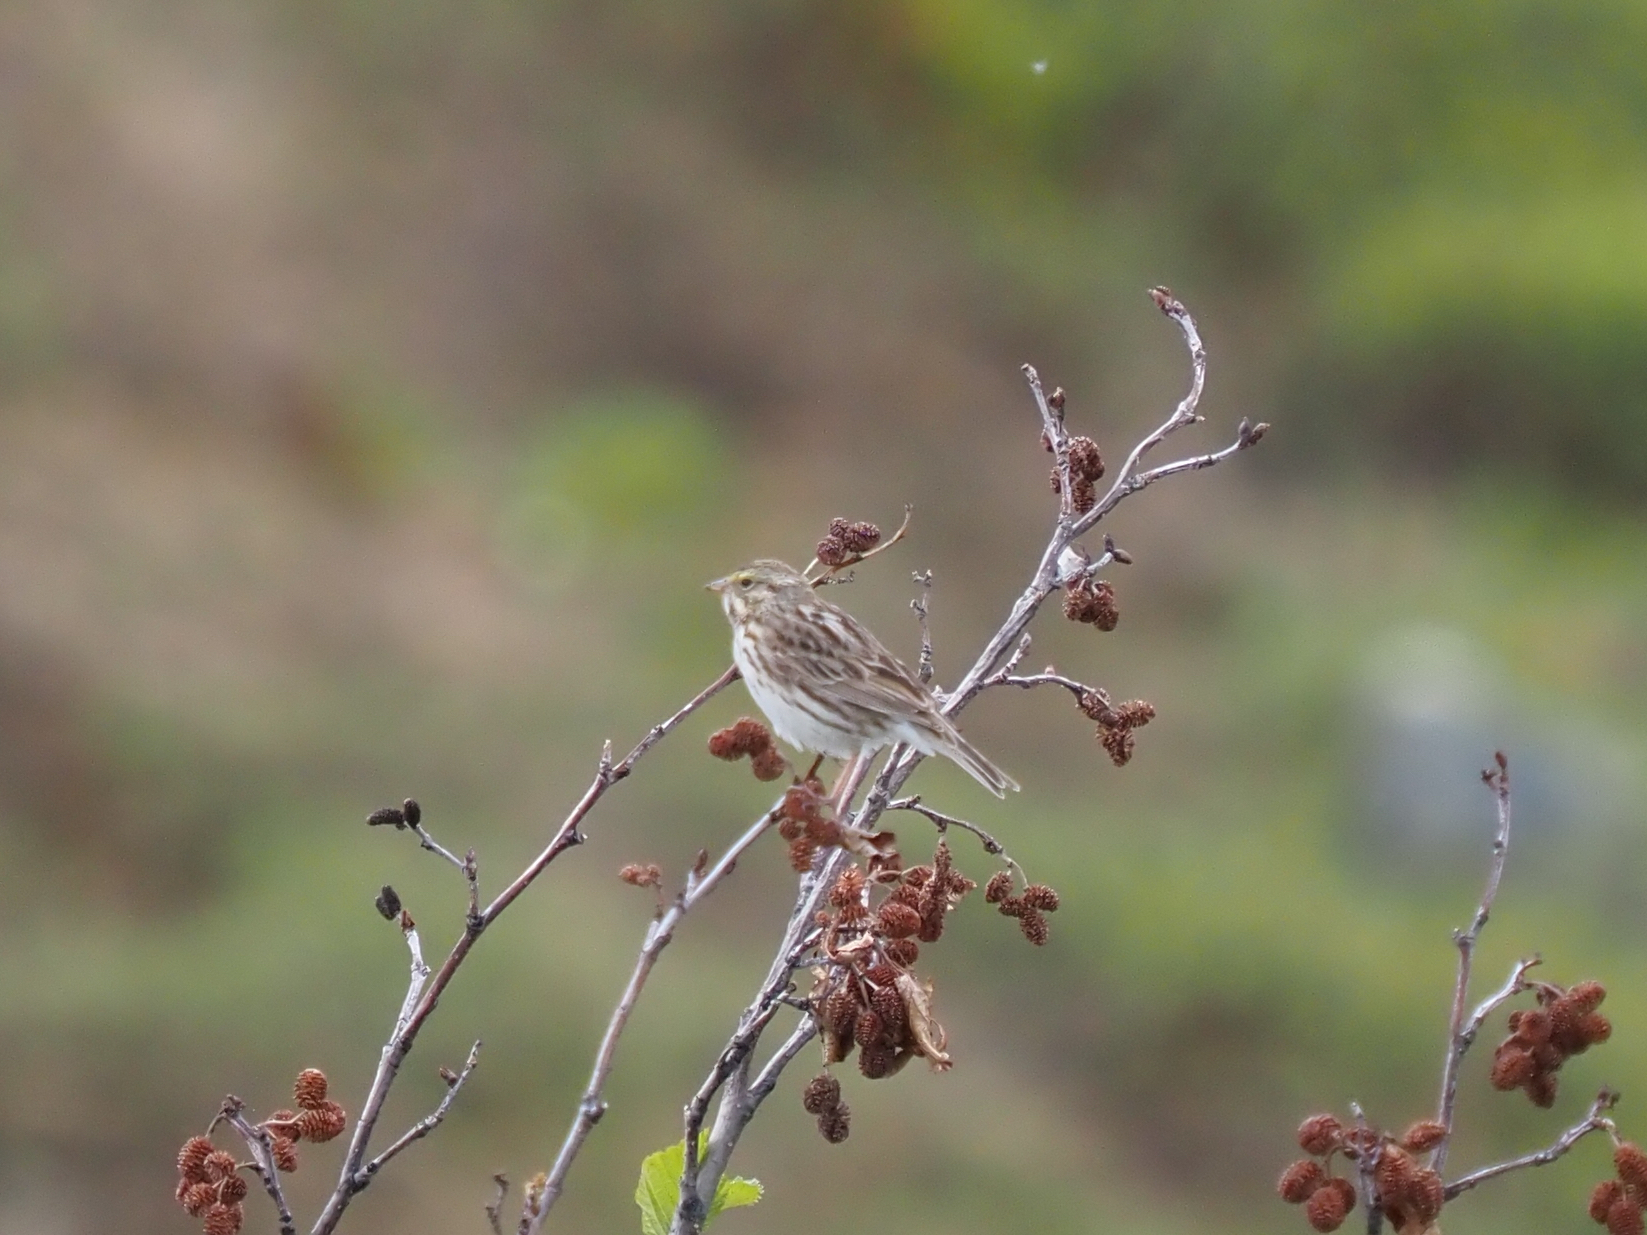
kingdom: Animalia
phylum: Chordata
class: Aves
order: Passeriformes
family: Passerellidae
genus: Passerculus
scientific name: Passerculus sandwichensis
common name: Savannah sparrow
